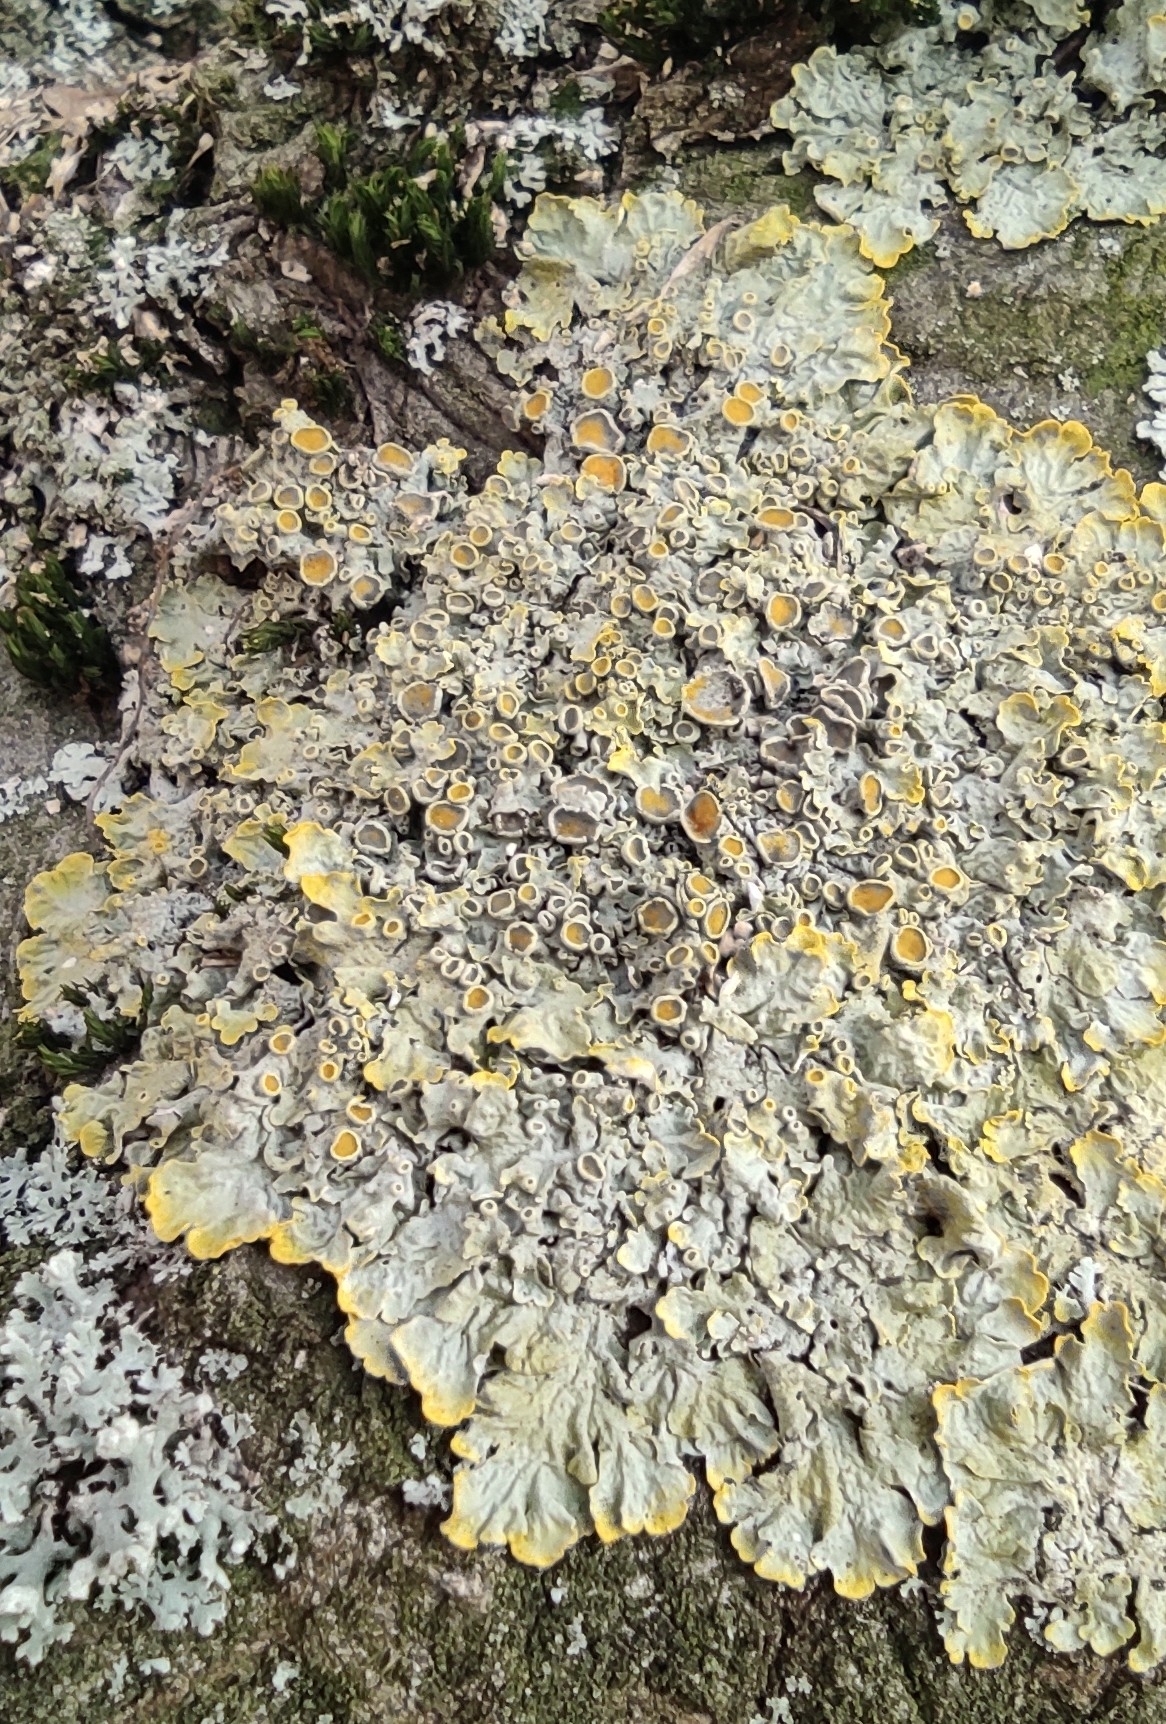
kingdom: Fungi
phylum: Ascomycota
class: Lecanoromycetes
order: Teloschistales
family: Teloschistaceae
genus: Xanthoria
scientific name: Xanthoria parietina
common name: Common orange lichen
